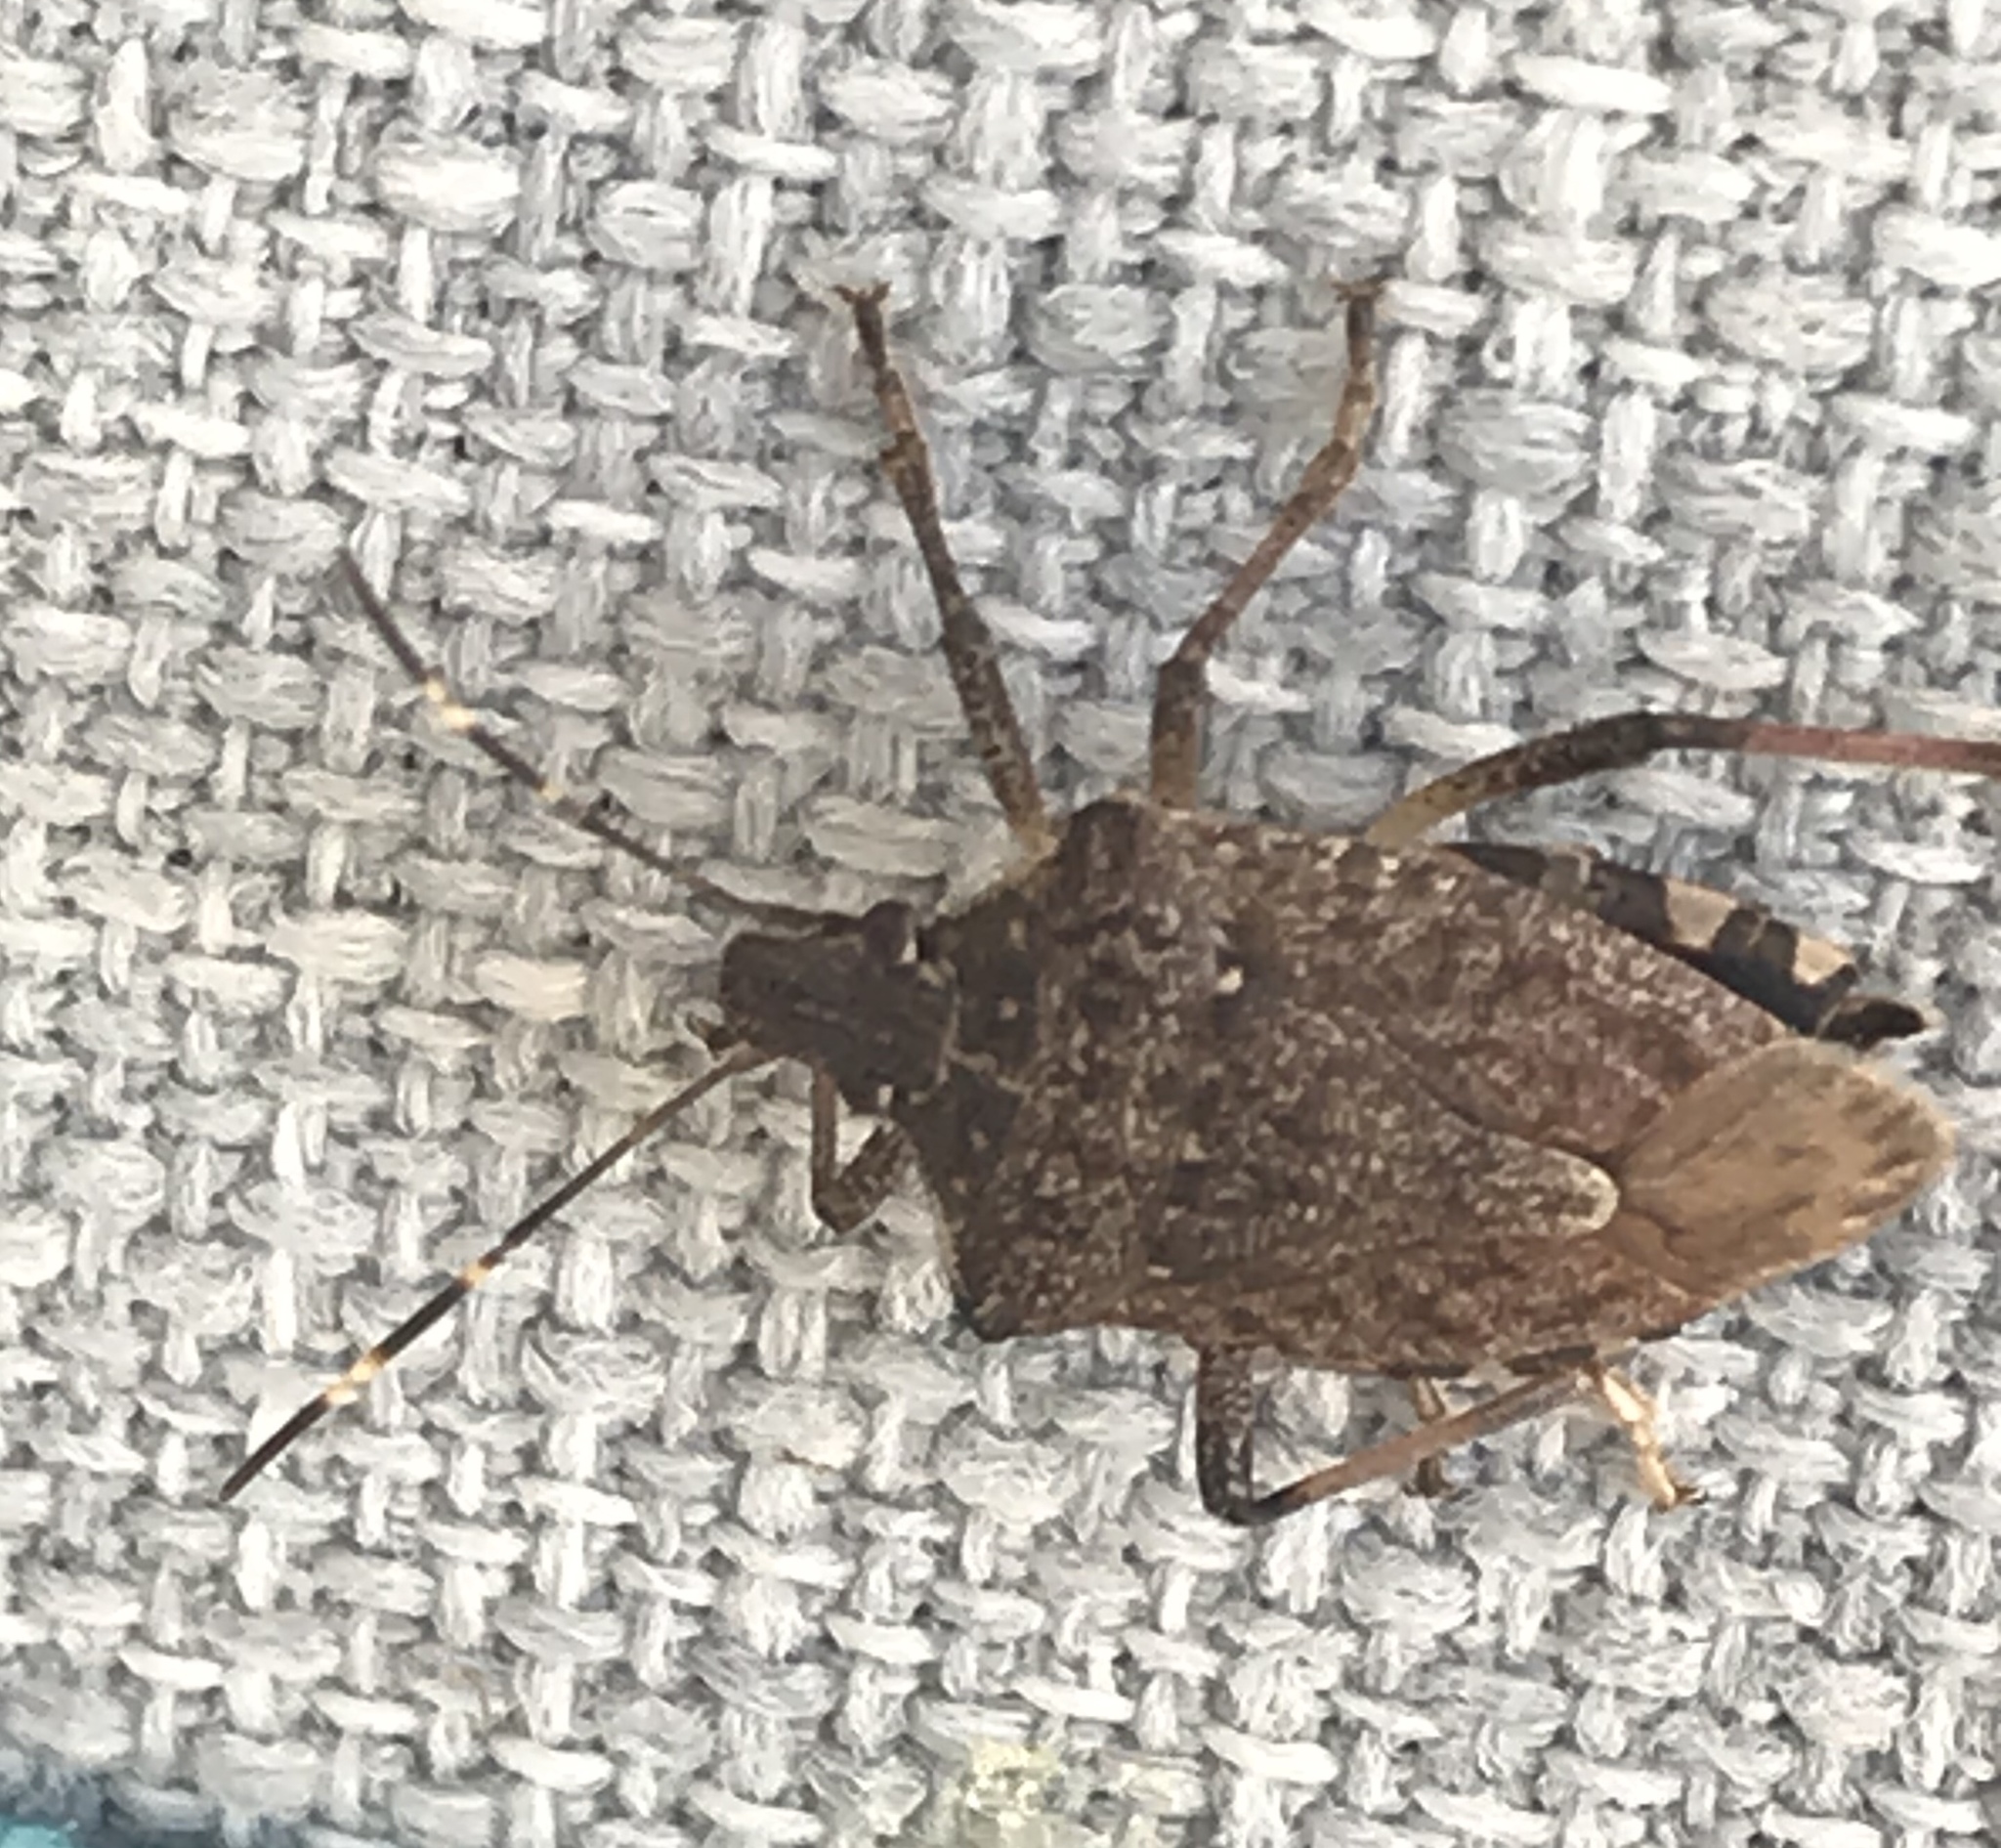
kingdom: Animalia
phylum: Arthropoda
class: Insecta
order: Hemiptera
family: Pentatomidae
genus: Halyomorpha
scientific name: Halyomorpha halys
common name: Brown marmorated stink bug
